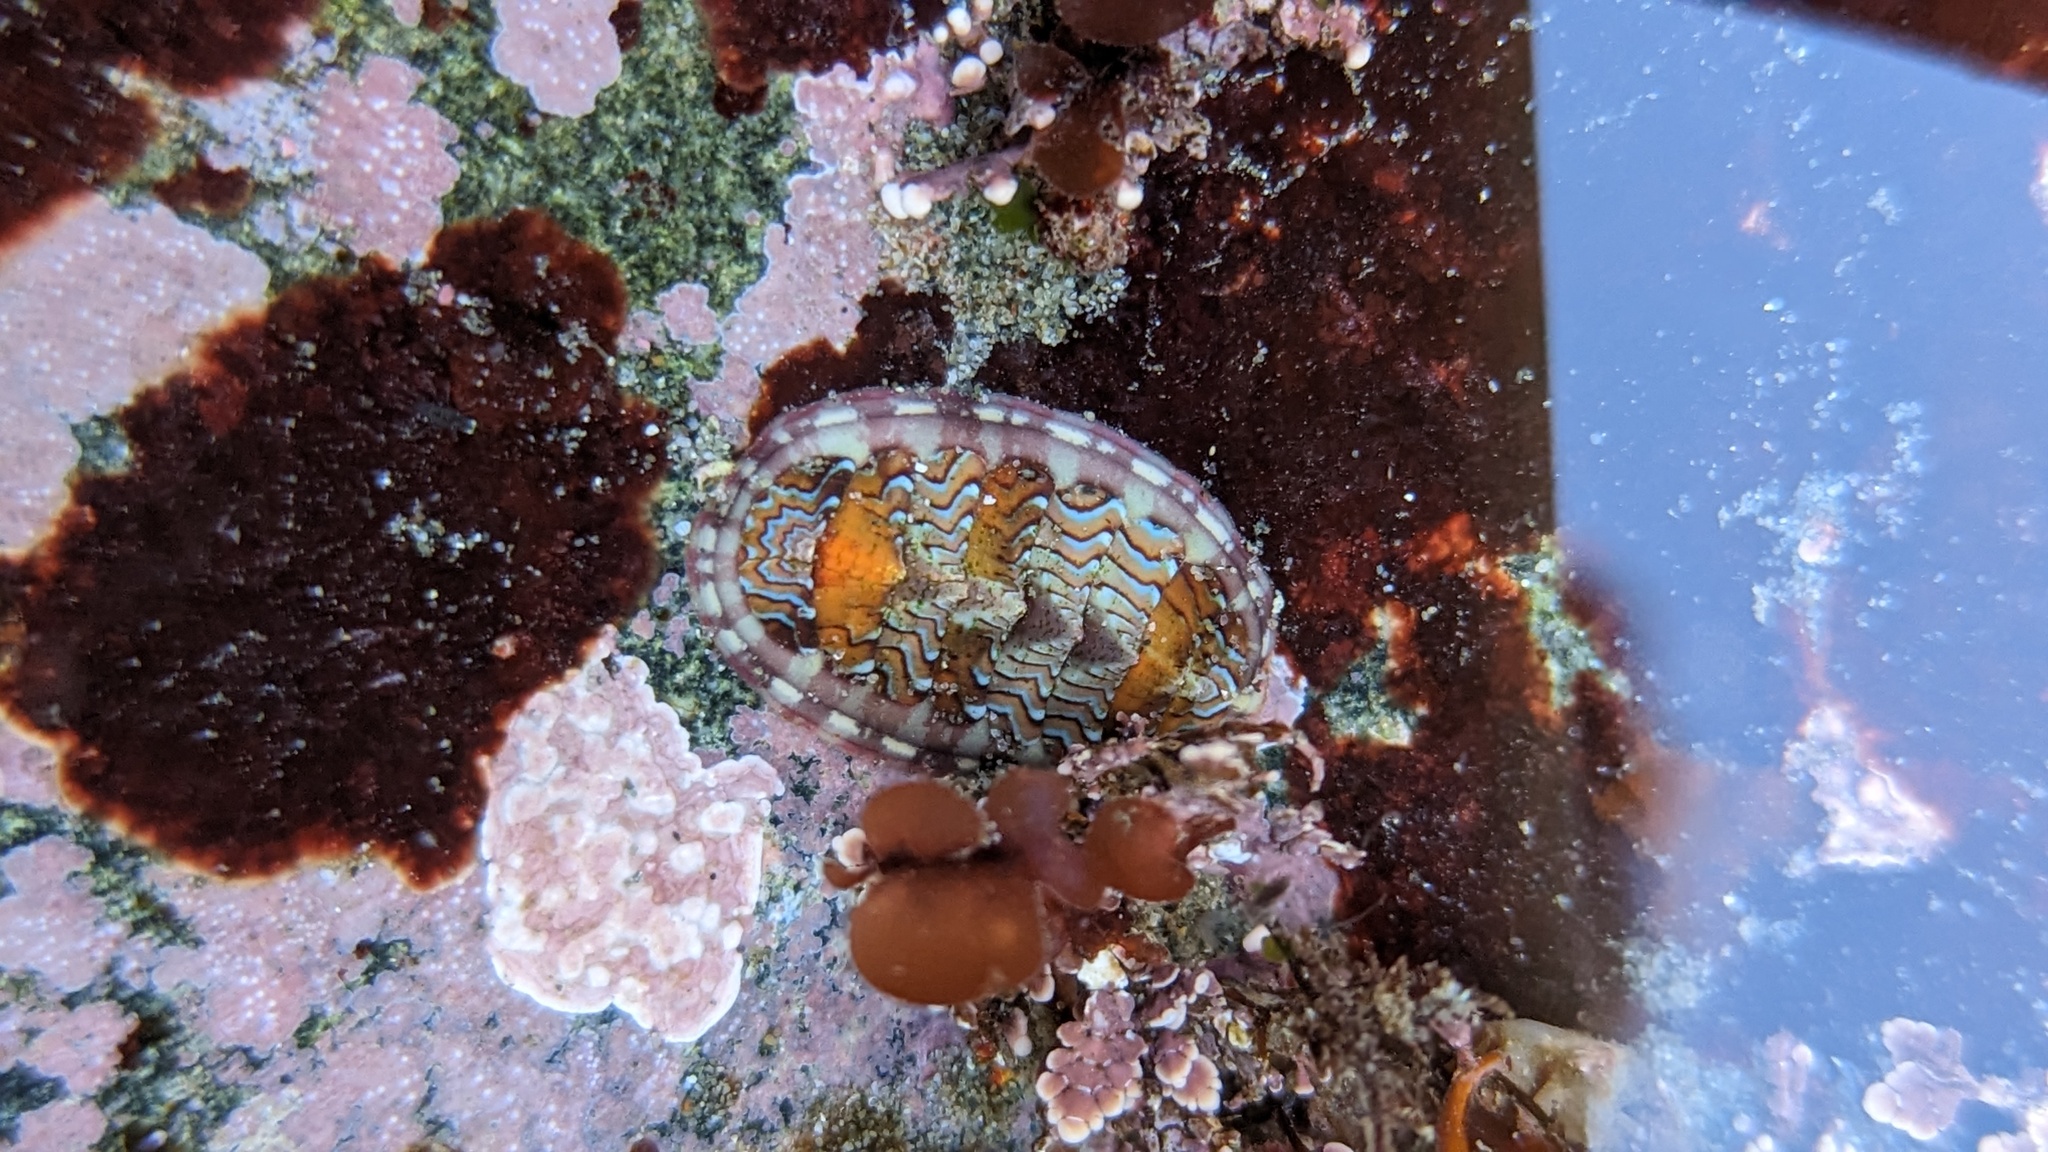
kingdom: Animalia
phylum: Mollusca
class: Polyplacophora
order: Chitonida
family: Tonicellidae
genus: Tonicella
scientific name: Tonicella lokii
